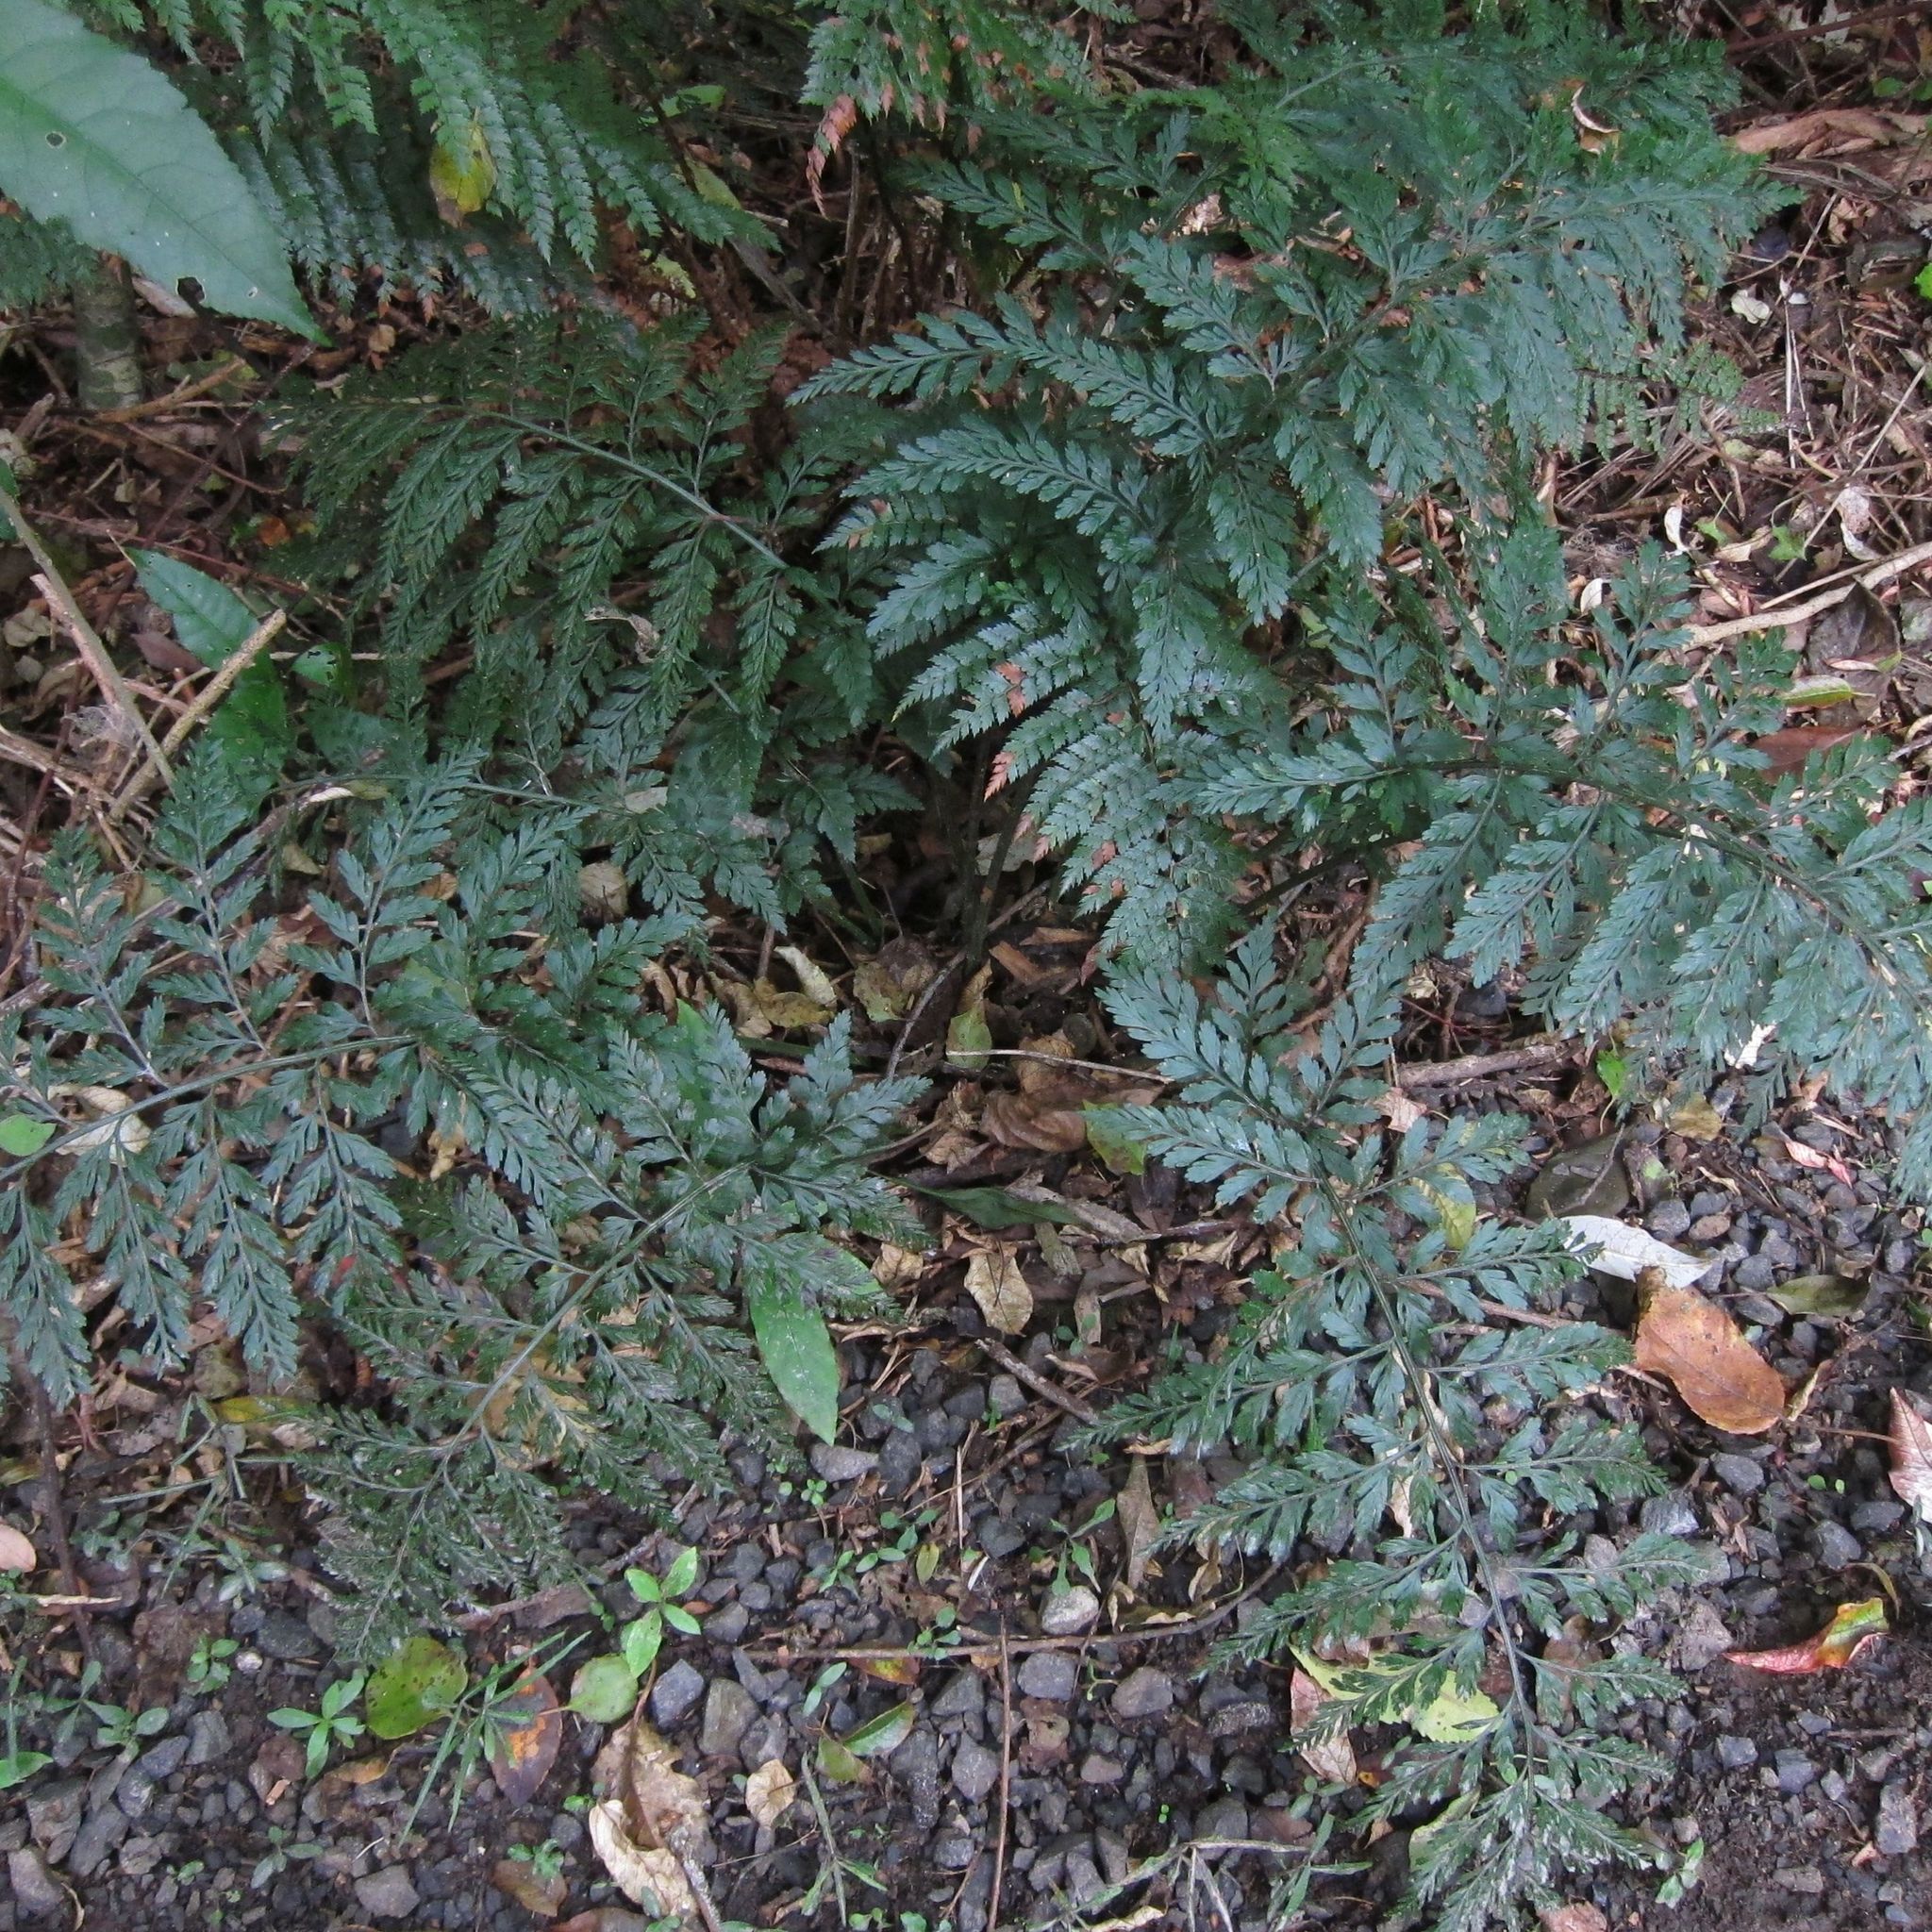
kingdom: Plantae
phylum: Tracheophyta
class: Polypodiopsida
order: Polypodiales
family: Aspleniaceae
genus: Asplenium
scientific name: Asplenium
